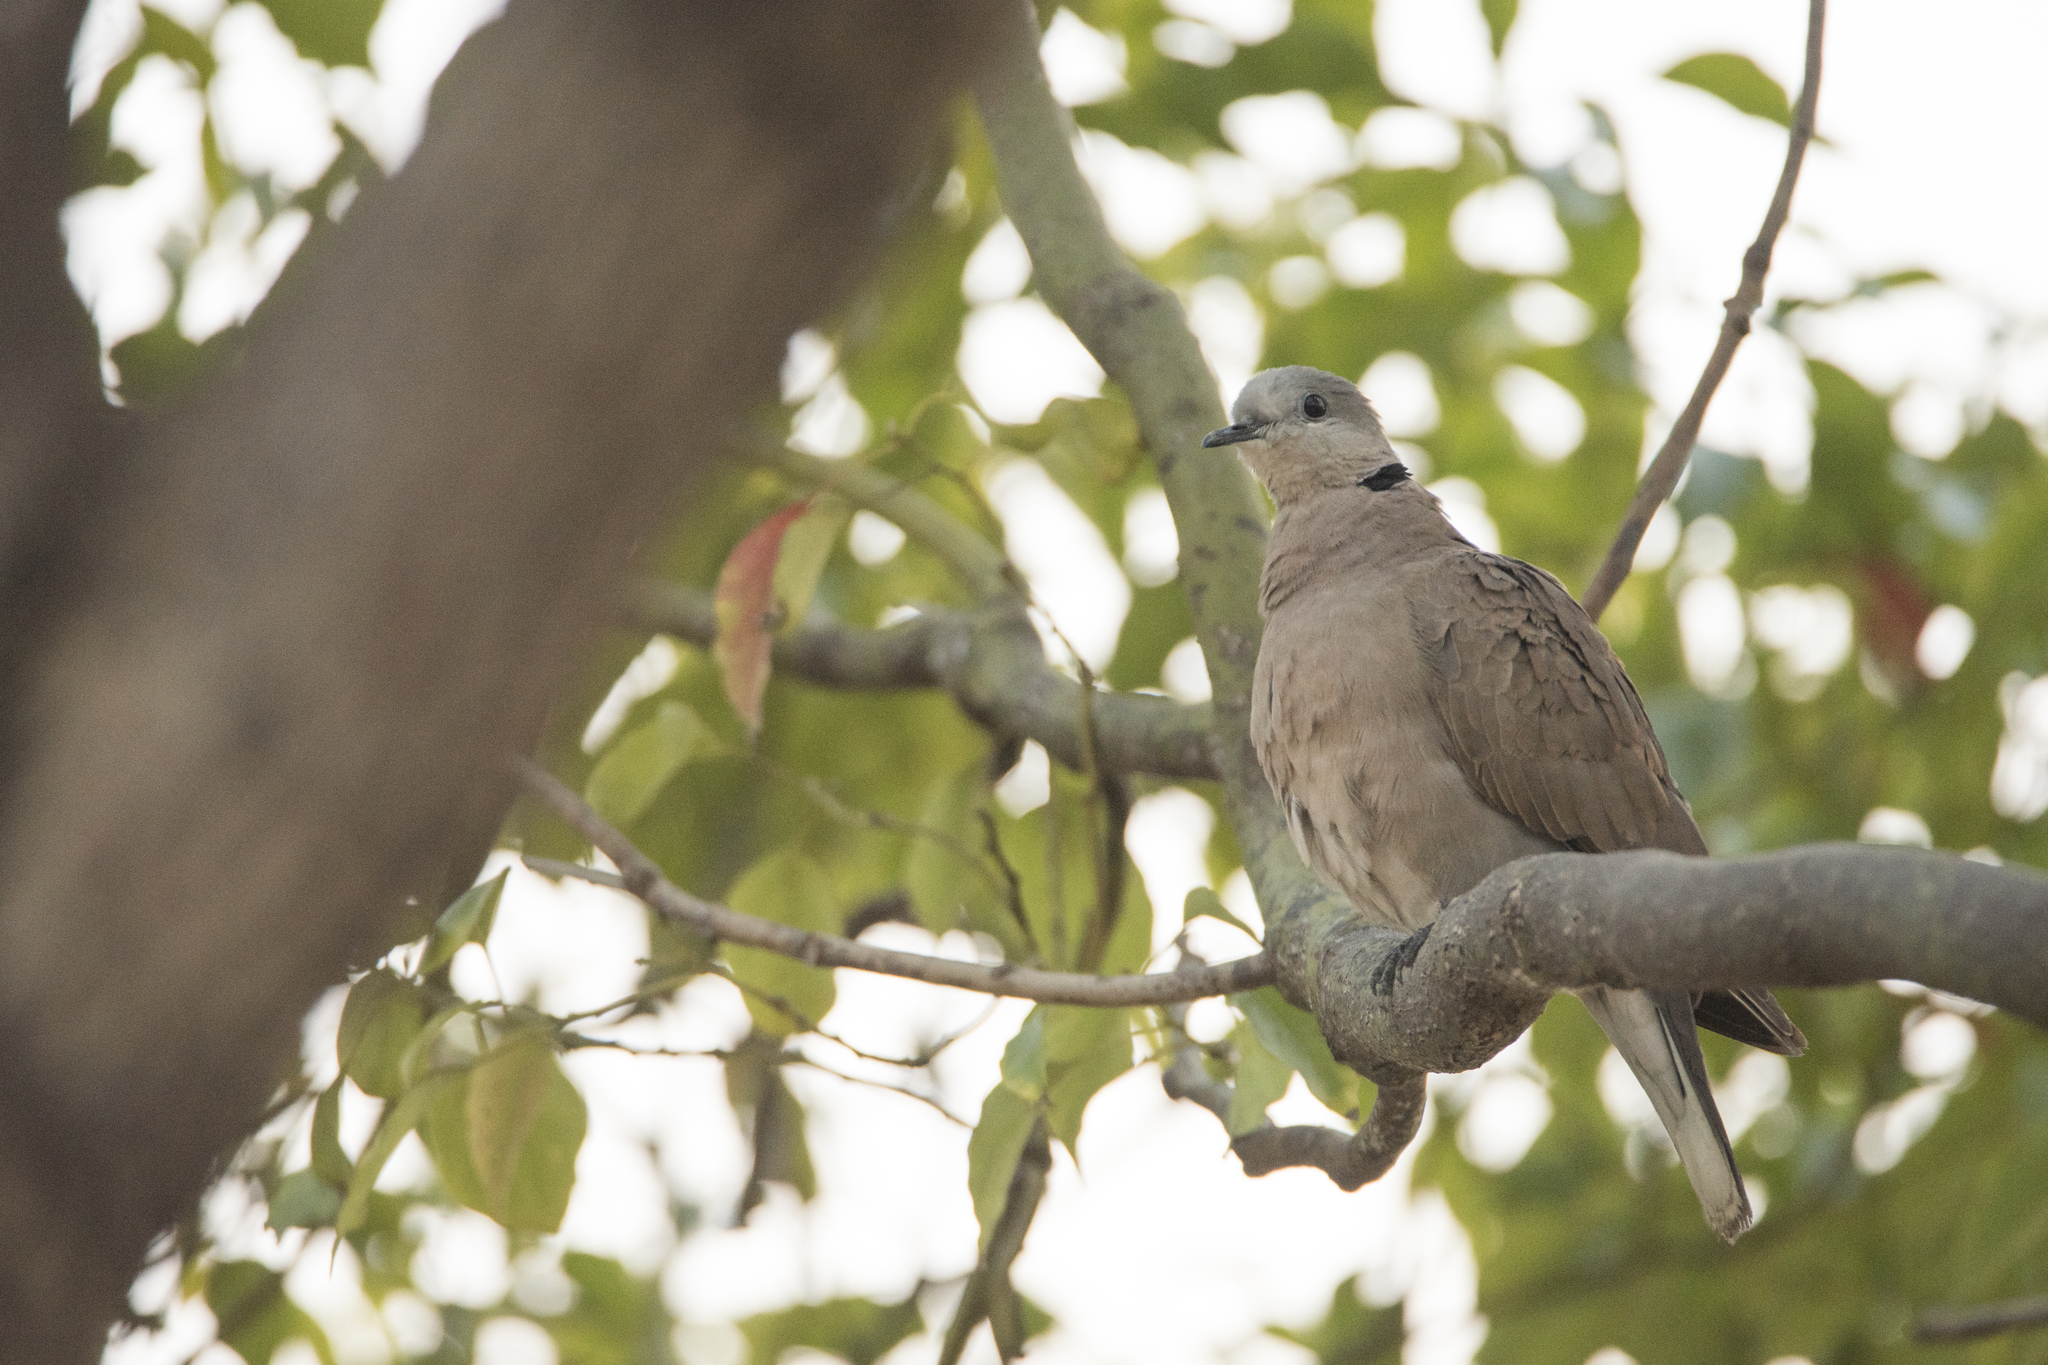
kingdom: Animalia
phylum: Chordata
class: Aves
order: Columbiformes
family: Columbidae
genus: Streptopelia
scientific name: Streptopelia tranquebarica
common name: Red turtle dove
